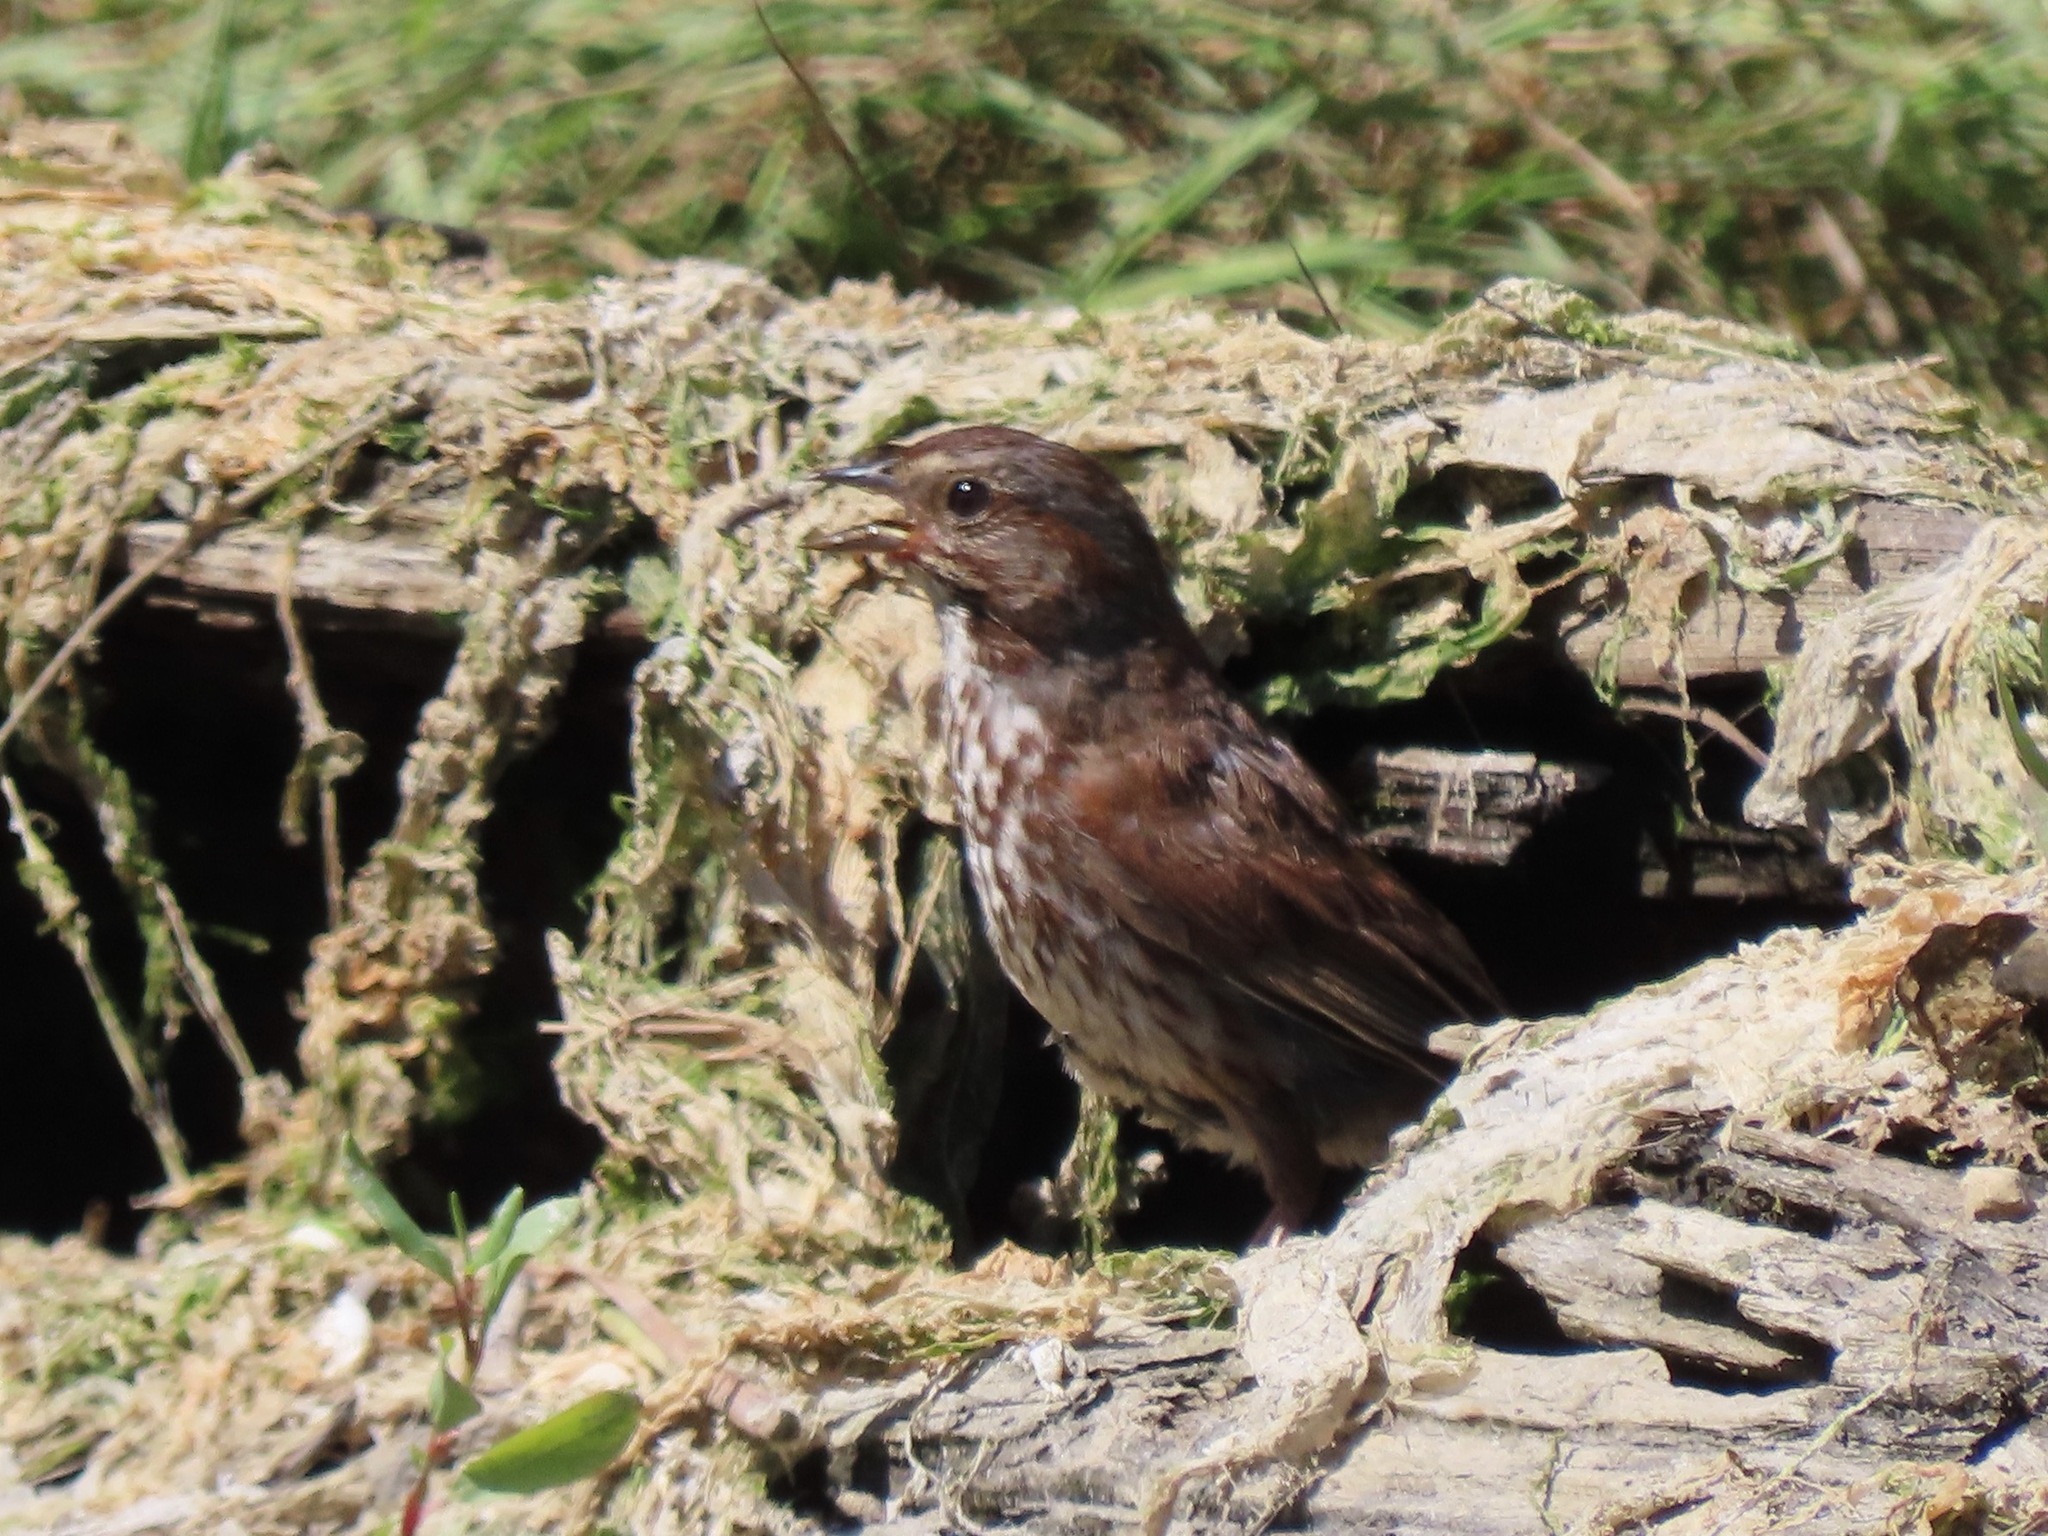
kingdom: Animalia
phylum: Chordata
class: Aves
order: Passeriformes
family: Passerellidae
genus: Melospiza
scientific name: Melospiza melodia
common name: Song sparrow
